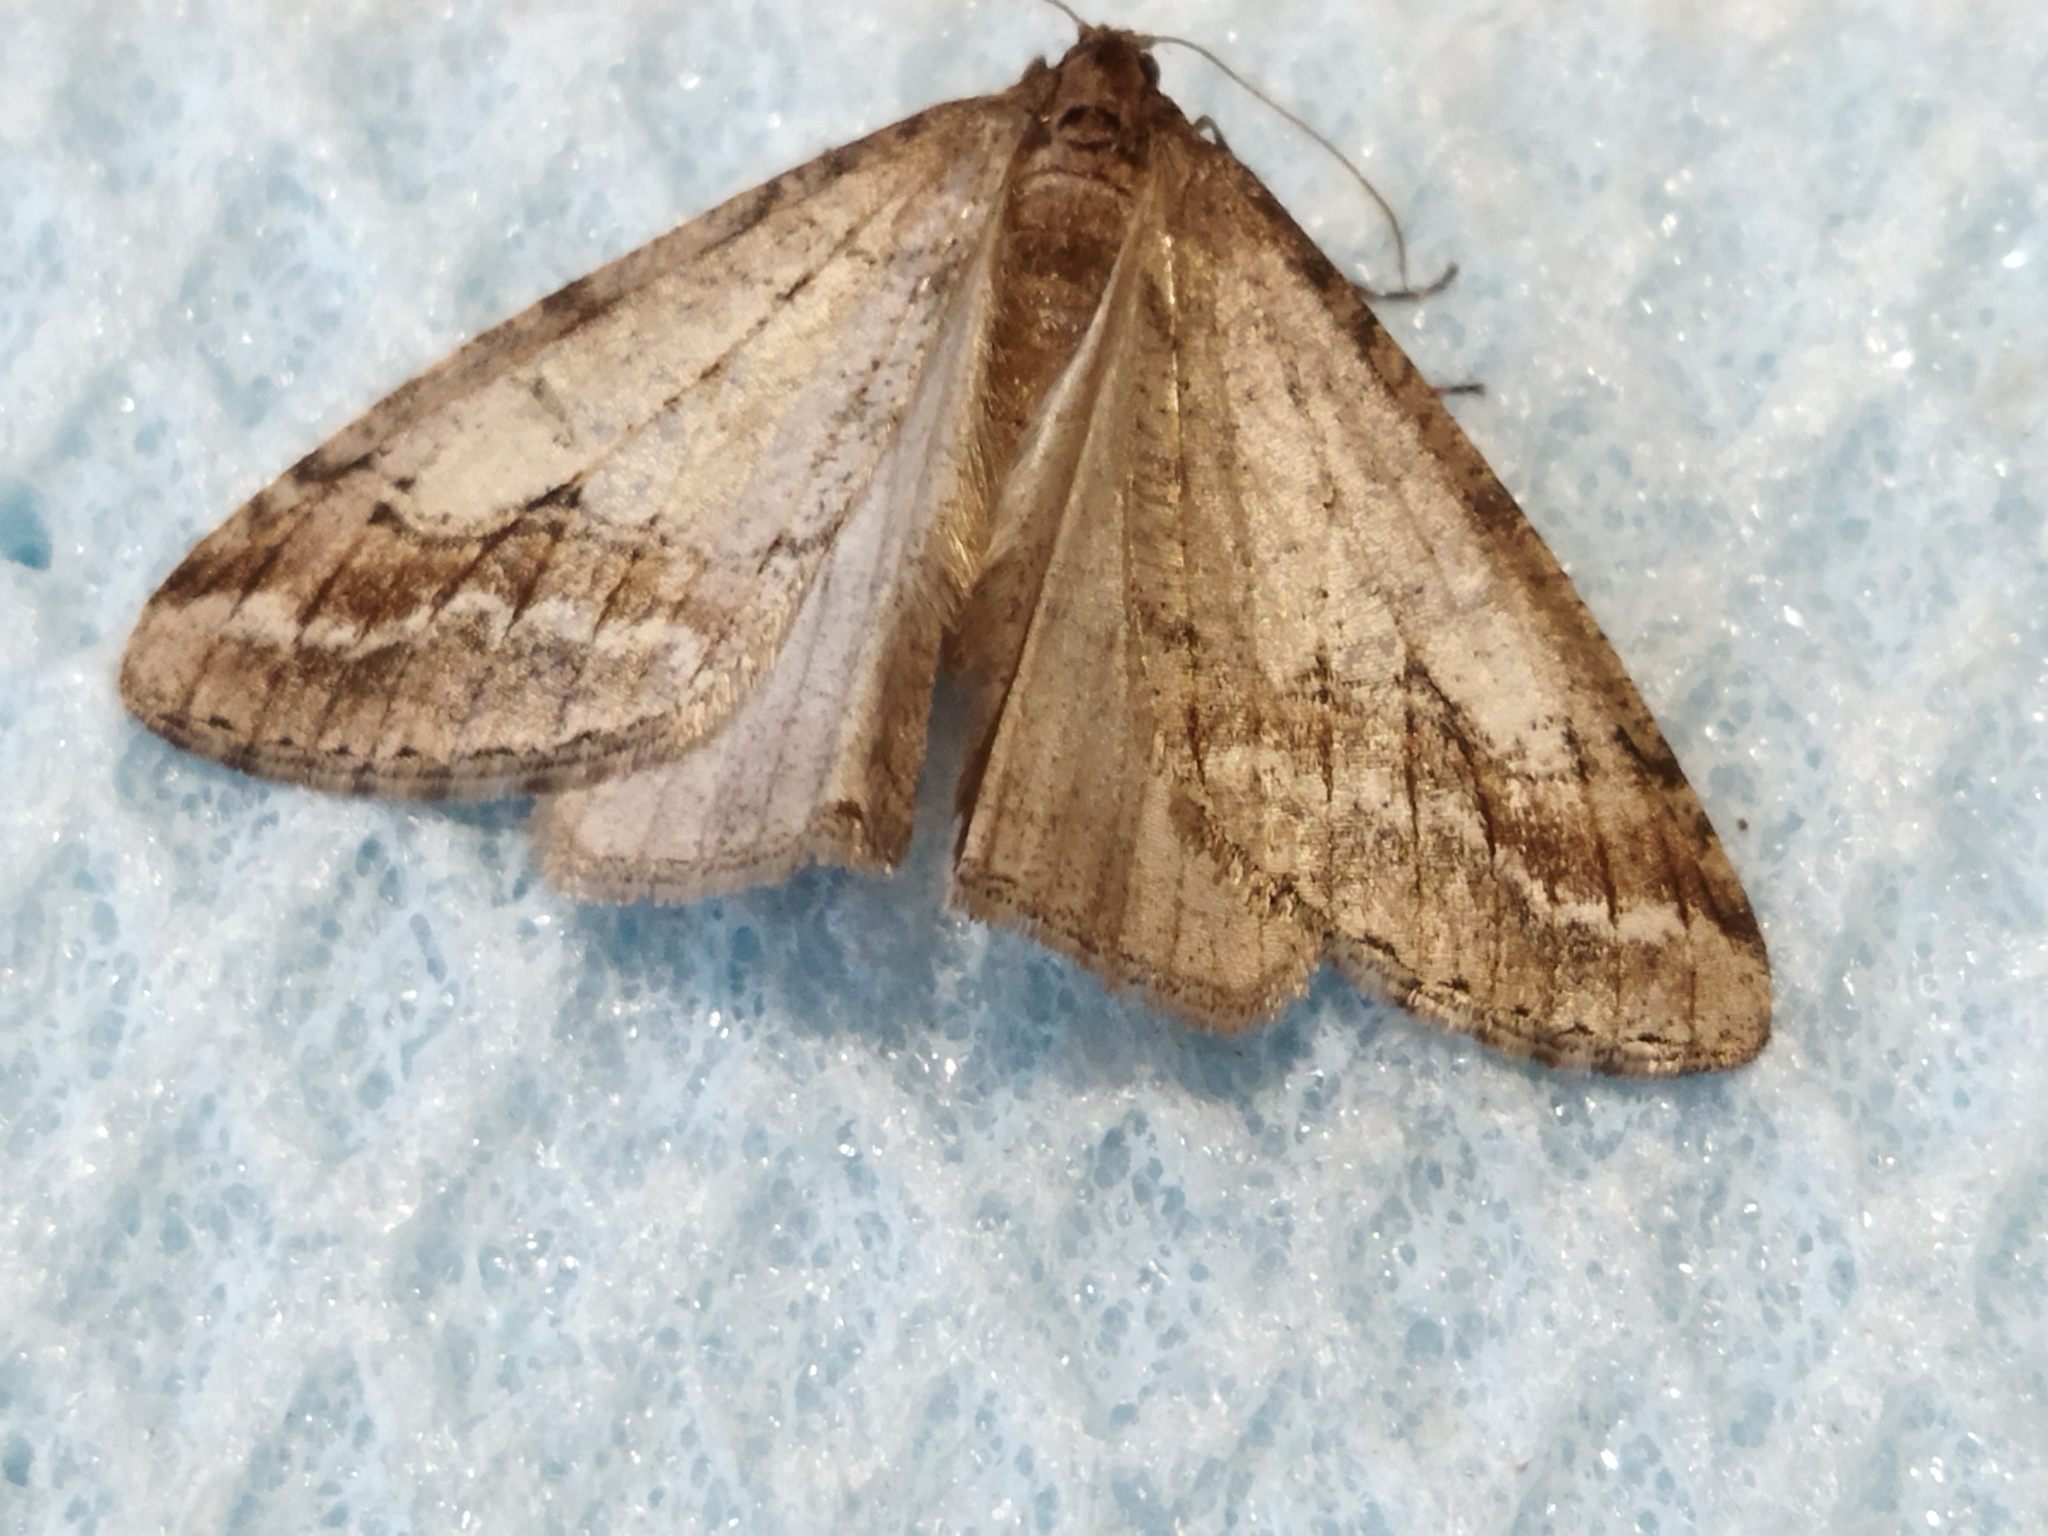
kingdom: Animalia
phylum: Arthropoda
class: Insecta
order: Lepidoptera
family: Geometridae
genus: Erannis
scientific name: Erannis declinans
